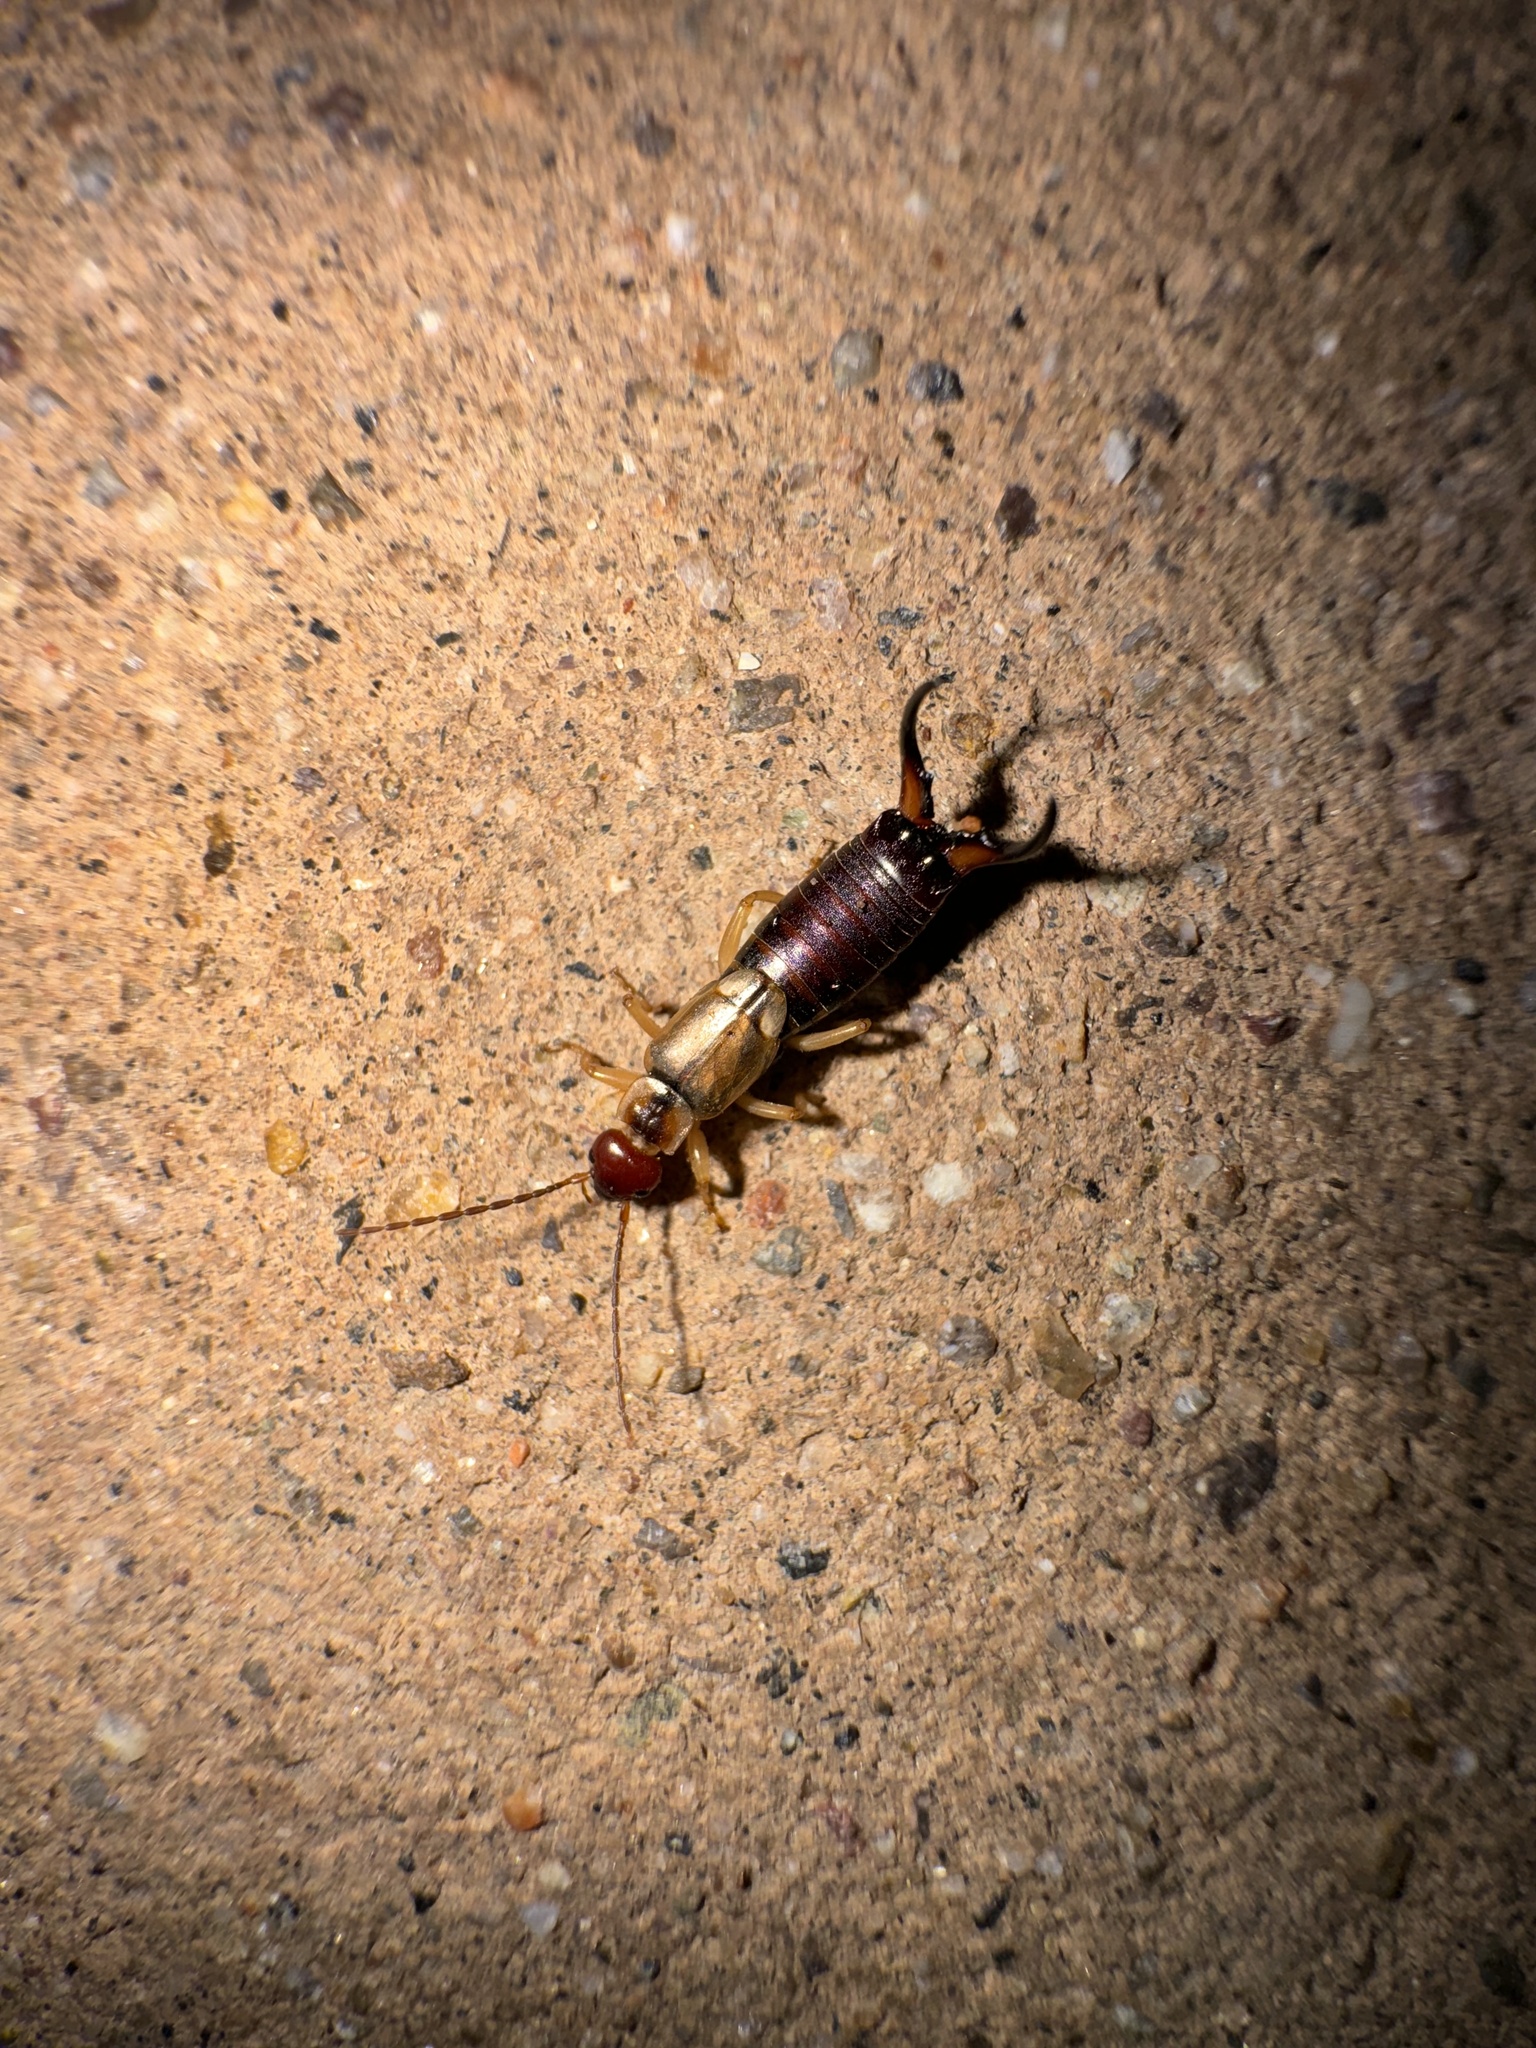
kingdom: Animalia
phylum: Arthropoda
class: Insecta
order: Dermaptera
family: Forficulidae
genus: Forficula
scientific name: Forficula dentata
